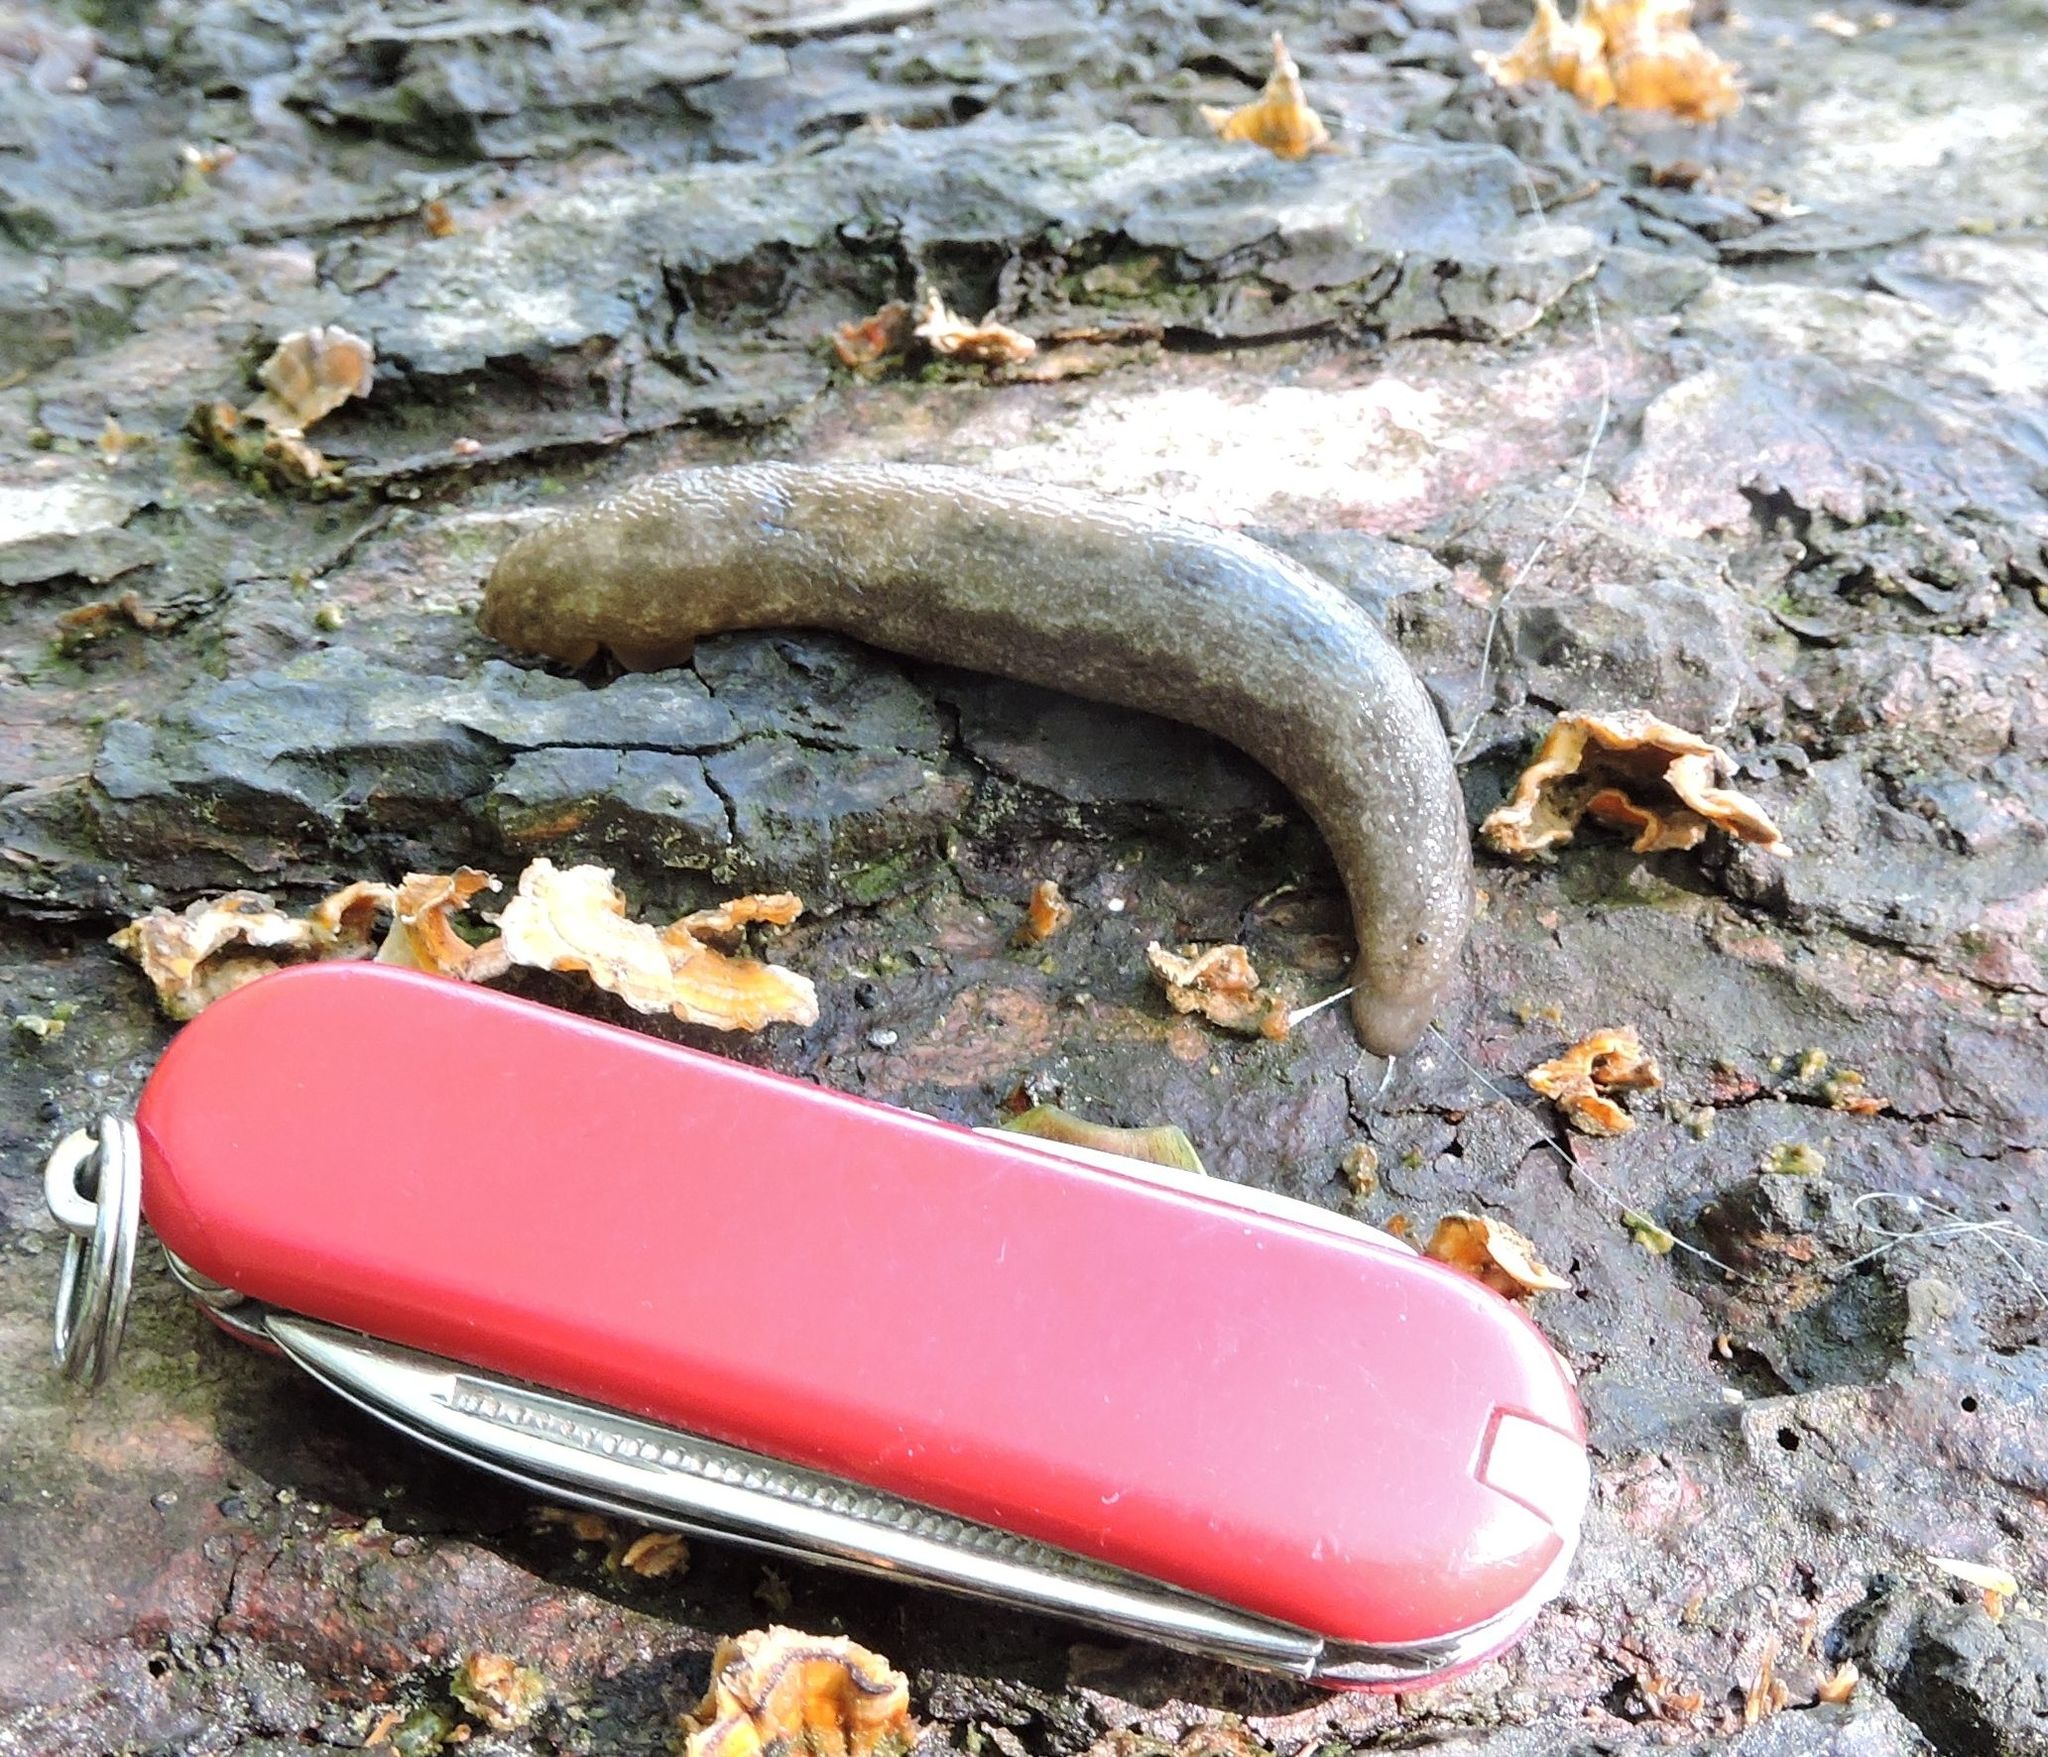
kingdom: Animalia
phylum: Mollusca
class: Gastropoda
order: Stylommatophora
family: Philomycidae
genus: Megapallifera
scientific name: Megapallifera mutabilis
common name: Changeable mantleslug
